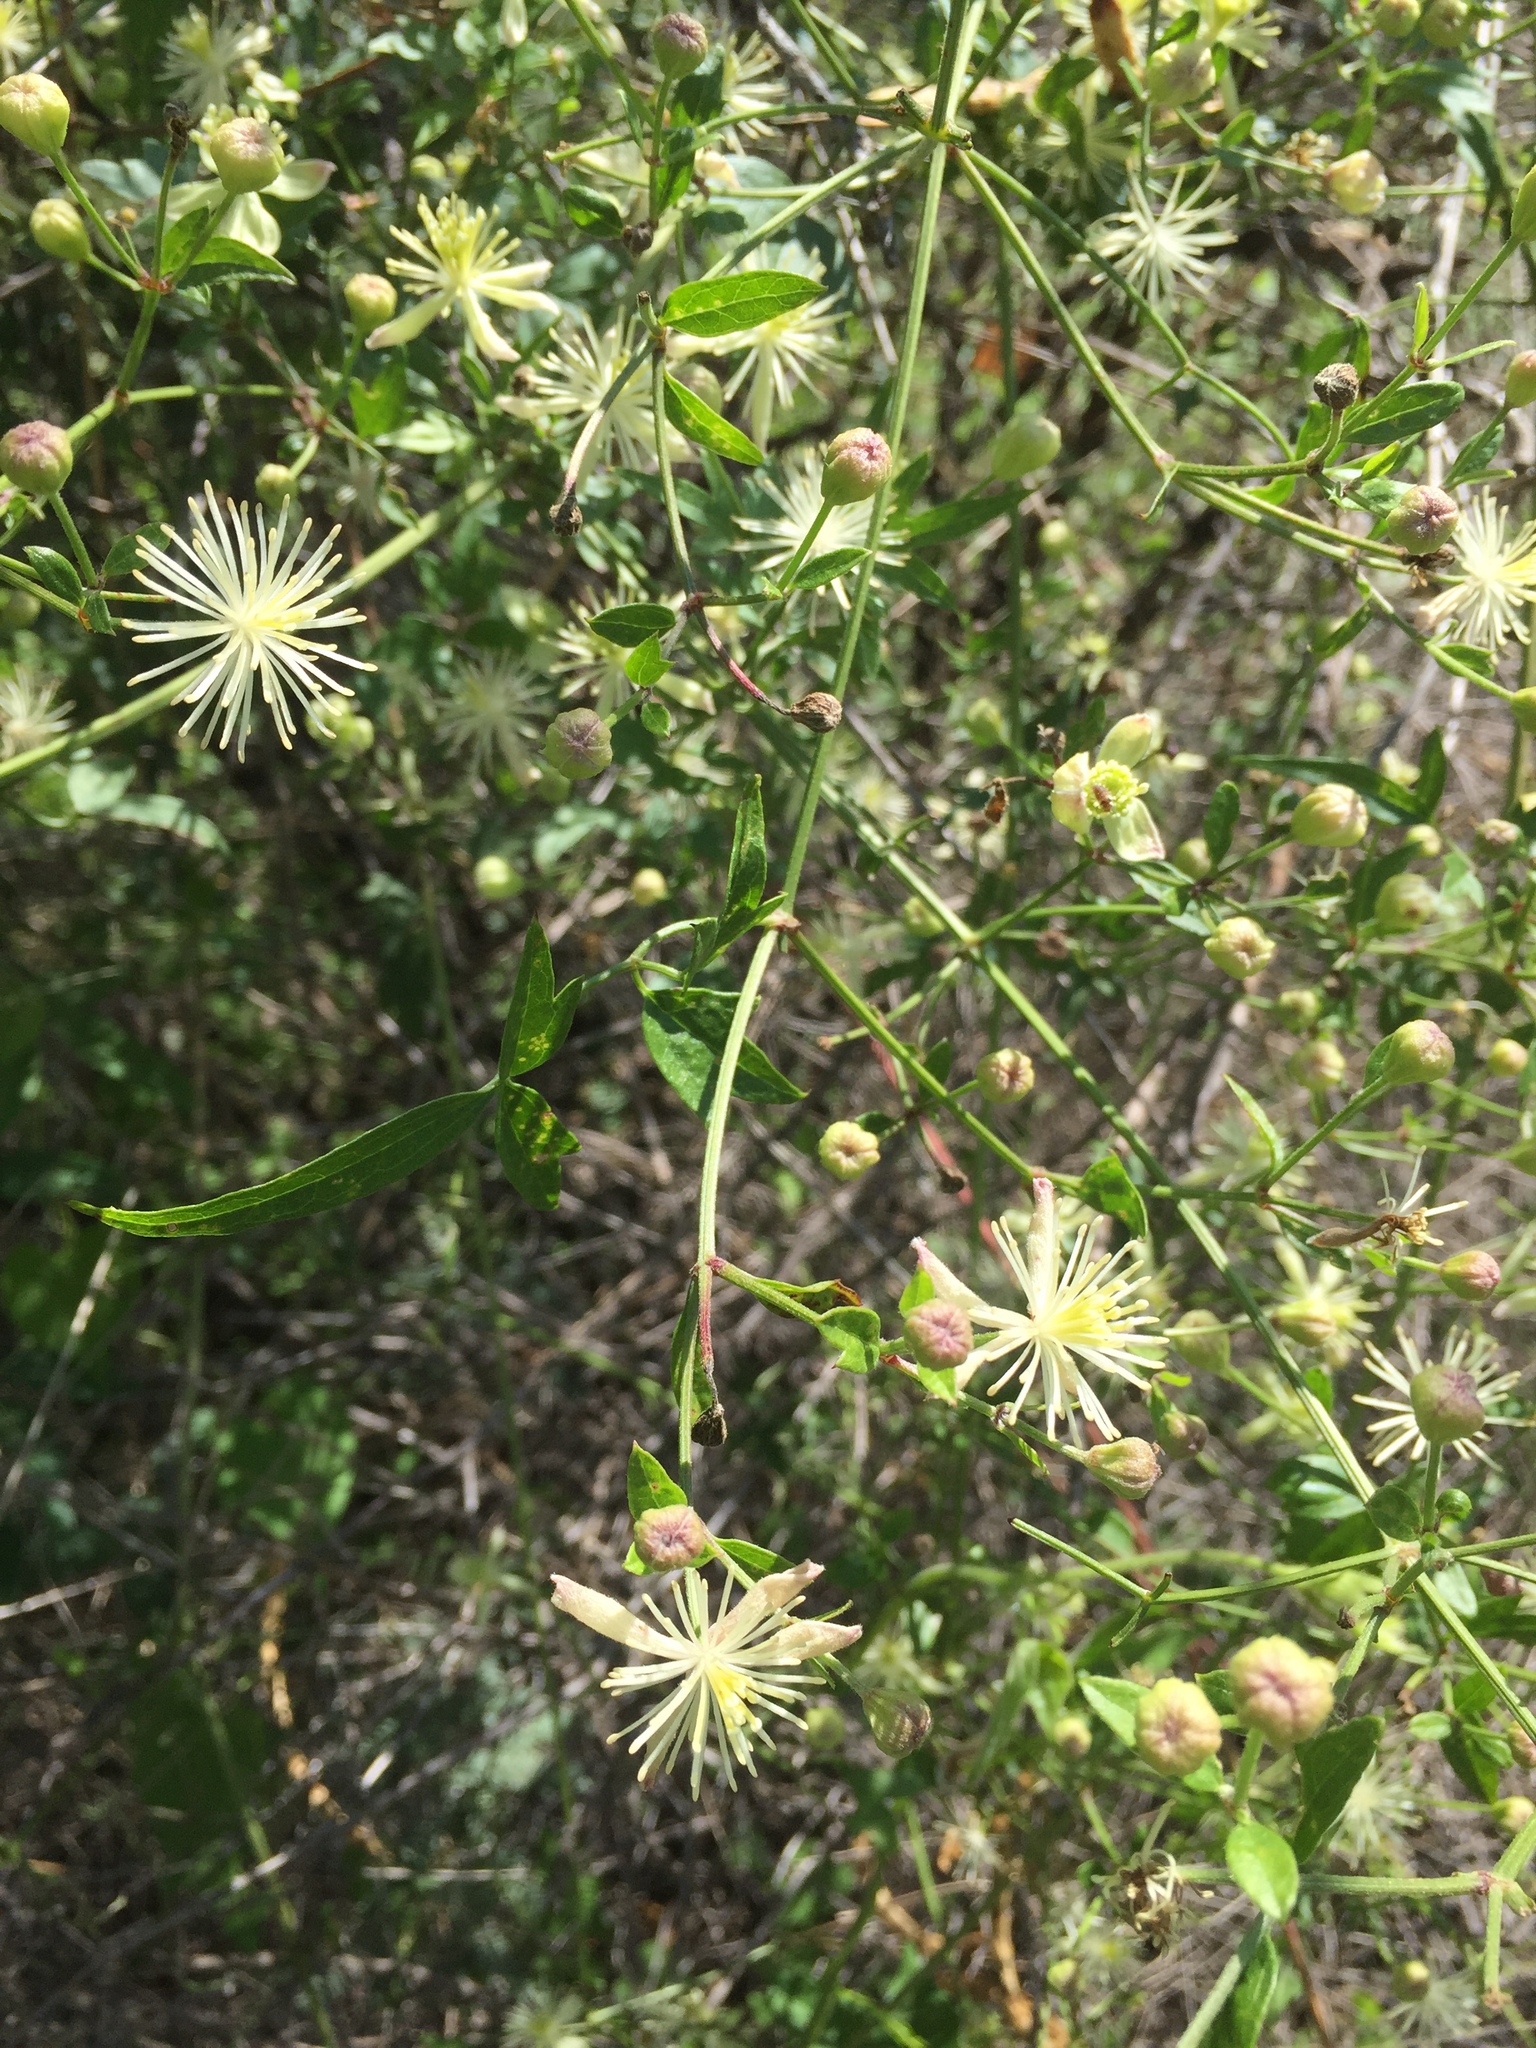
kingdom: Plantae
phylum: Tracheophyta
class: Magnoliopsida
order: Ranunculales
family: Ranunculaceae
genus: Clematis
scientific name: Clematis drummondii
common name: Texas virgin's bower
